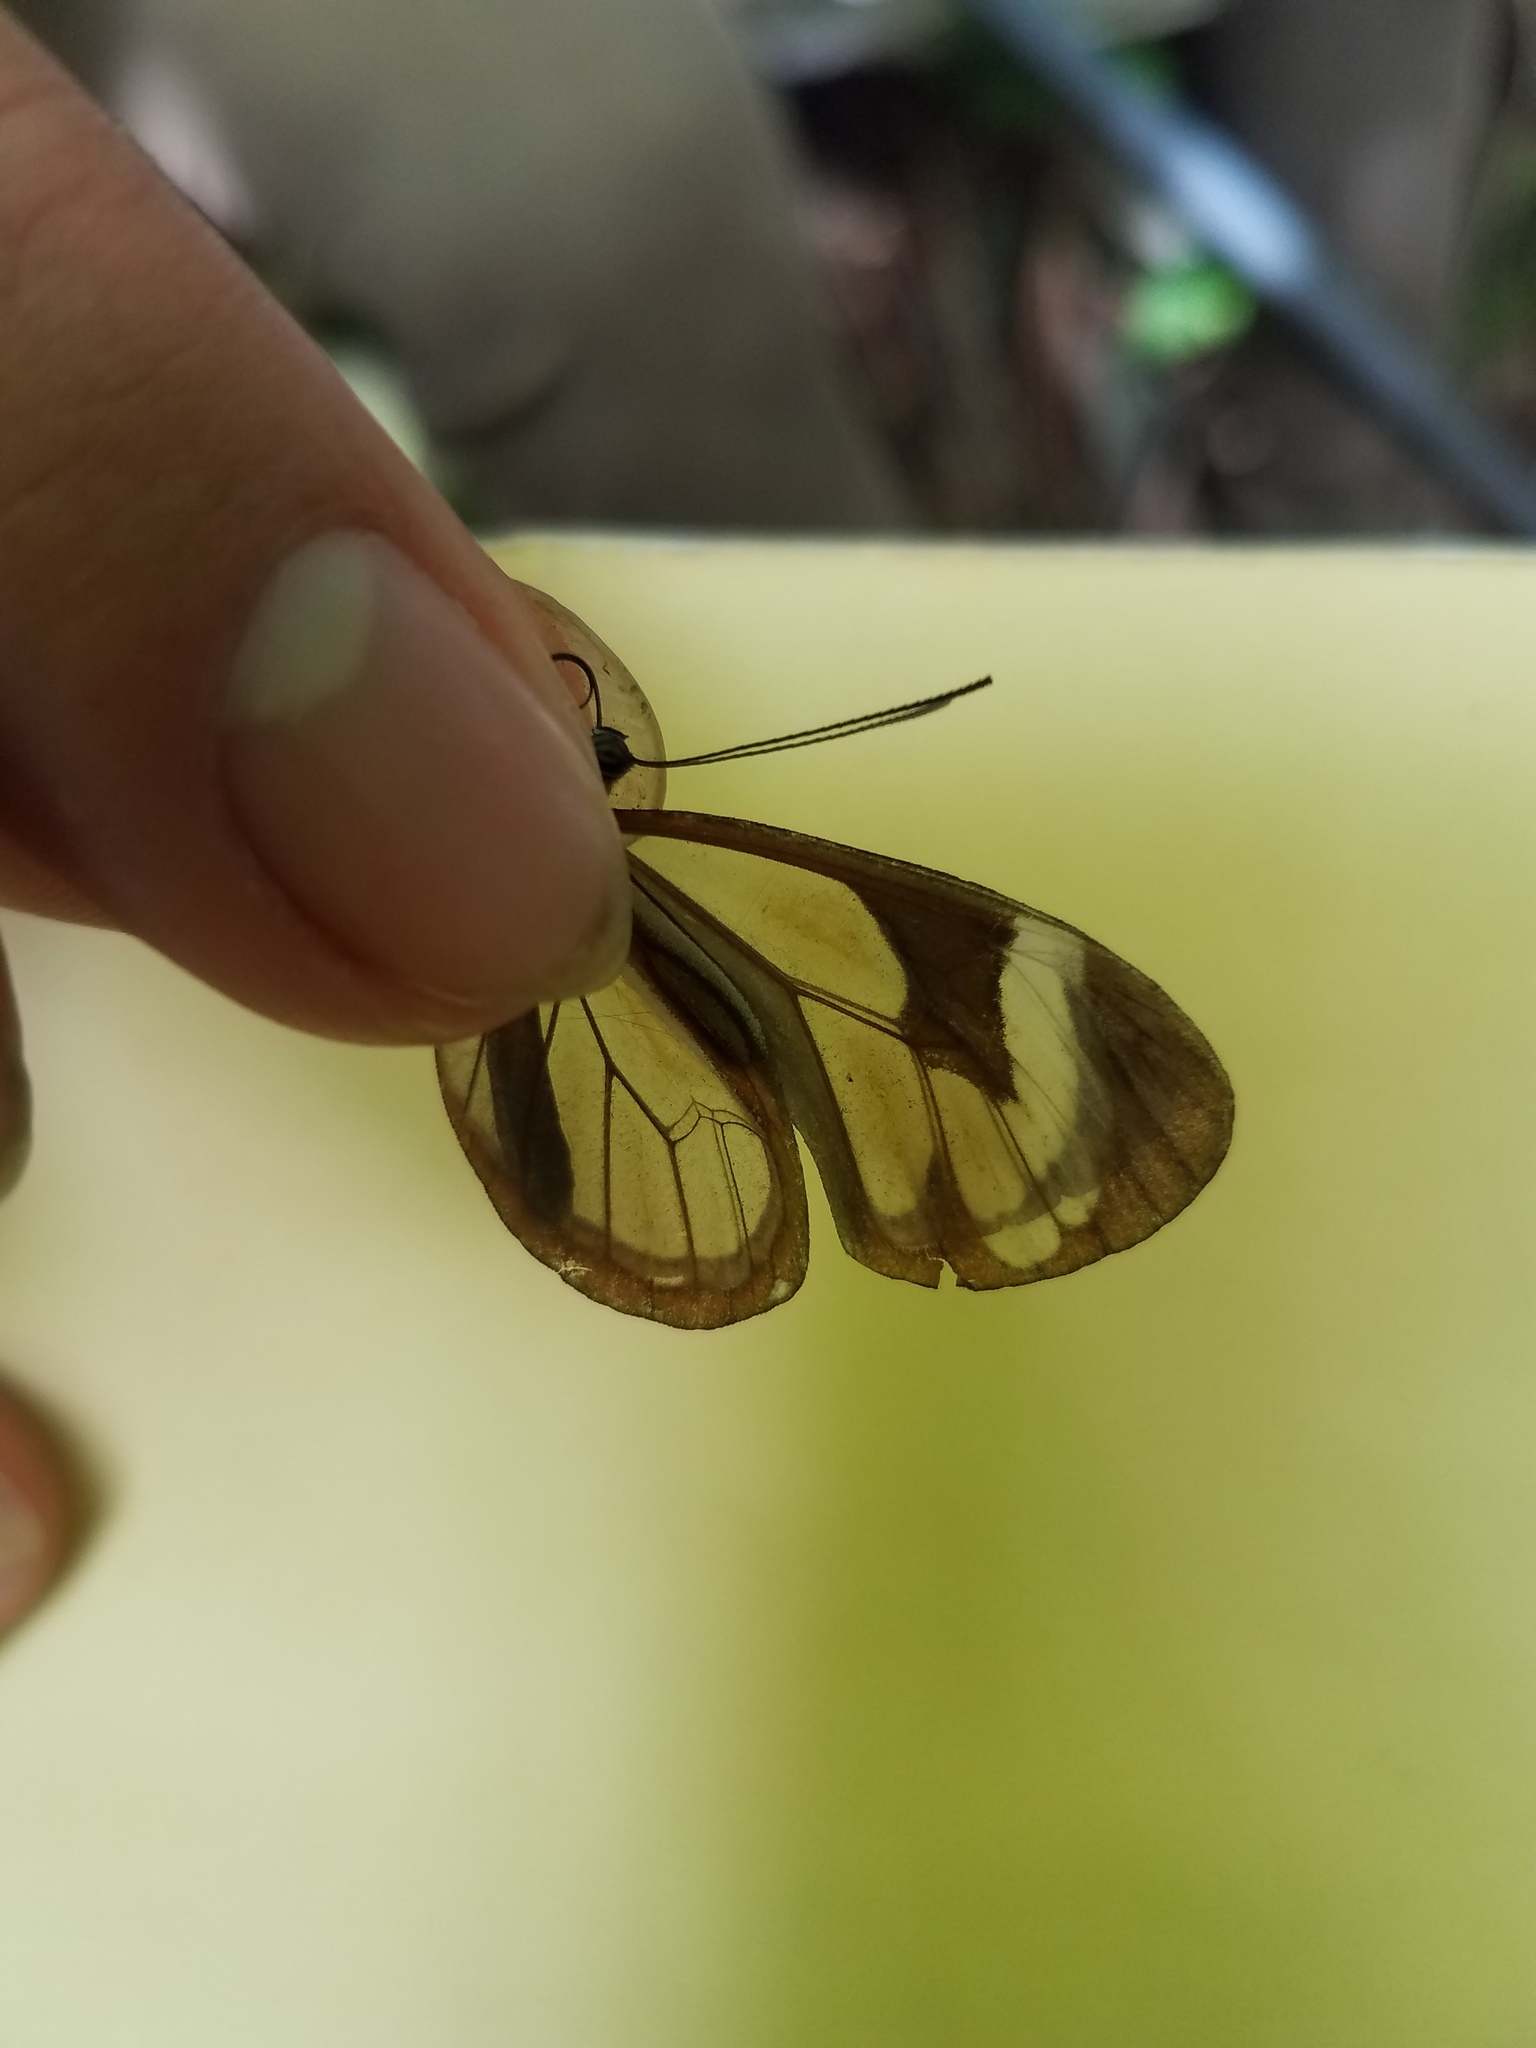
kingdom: Animalia
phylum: Arthropoda
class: Insecta
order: Lepidoptera
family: Nymphalidae
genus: Ithomia
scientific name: Ithomia patilla
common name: Patilla clearwing
